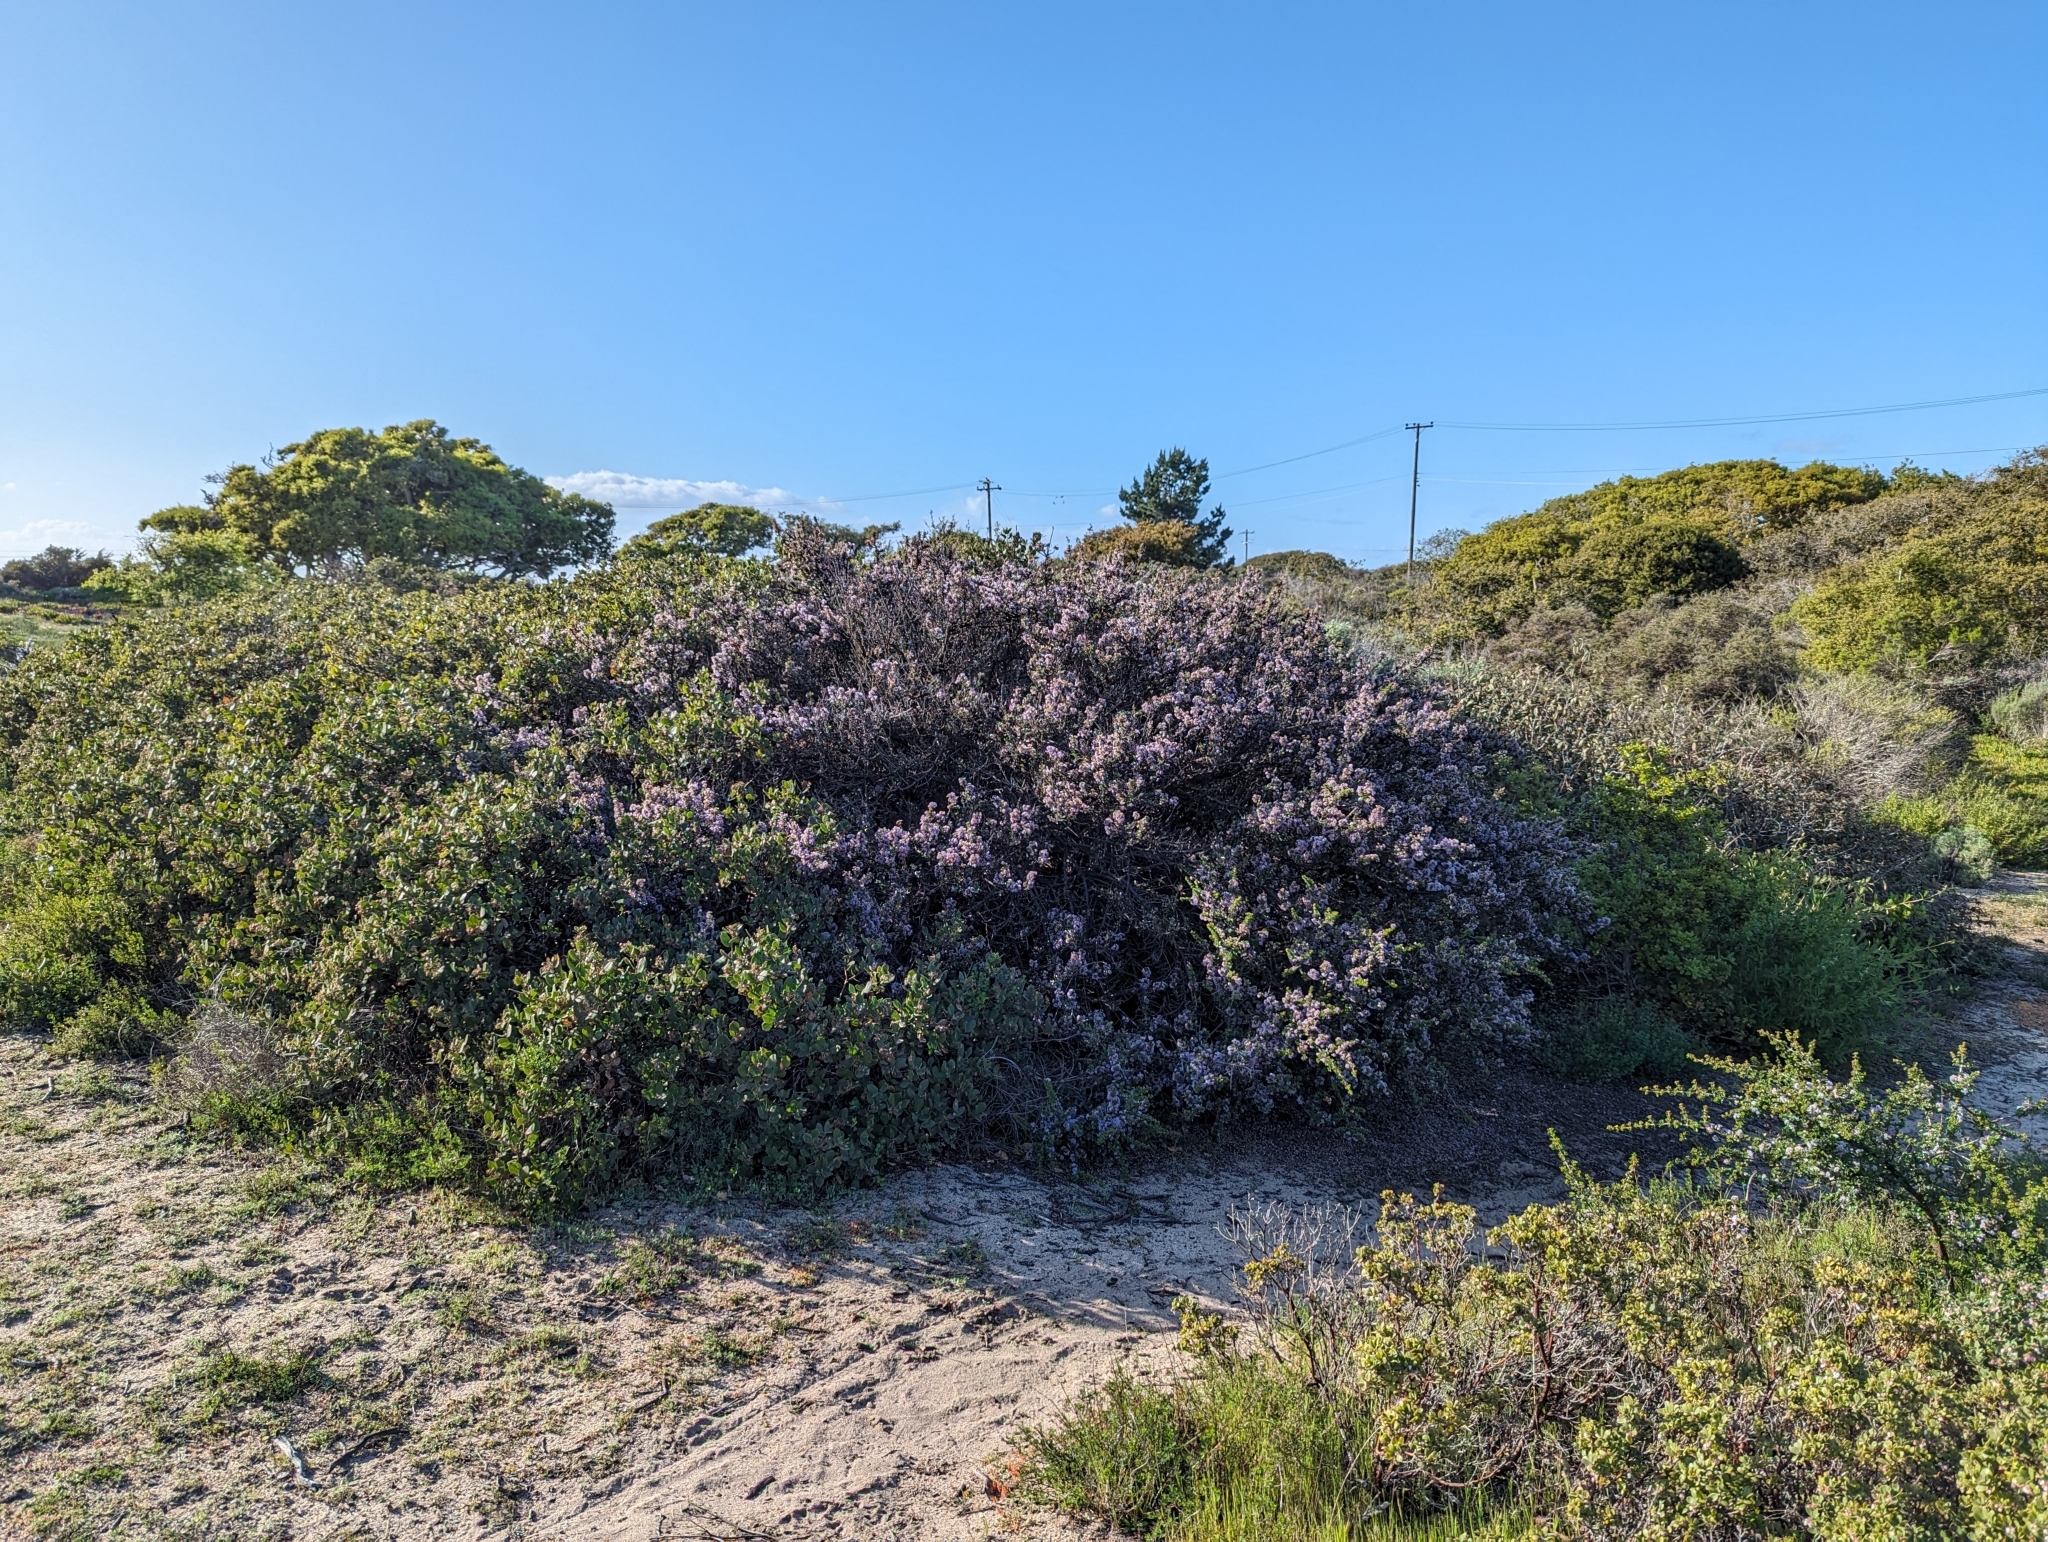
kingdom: Plantae
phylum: Tracheophyta
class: Magnoliopsida
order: Rosales
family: Rhamnaceae
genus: Ceanothus
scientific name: Ceanothus cuneatus
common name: Cuneate ceanothus
